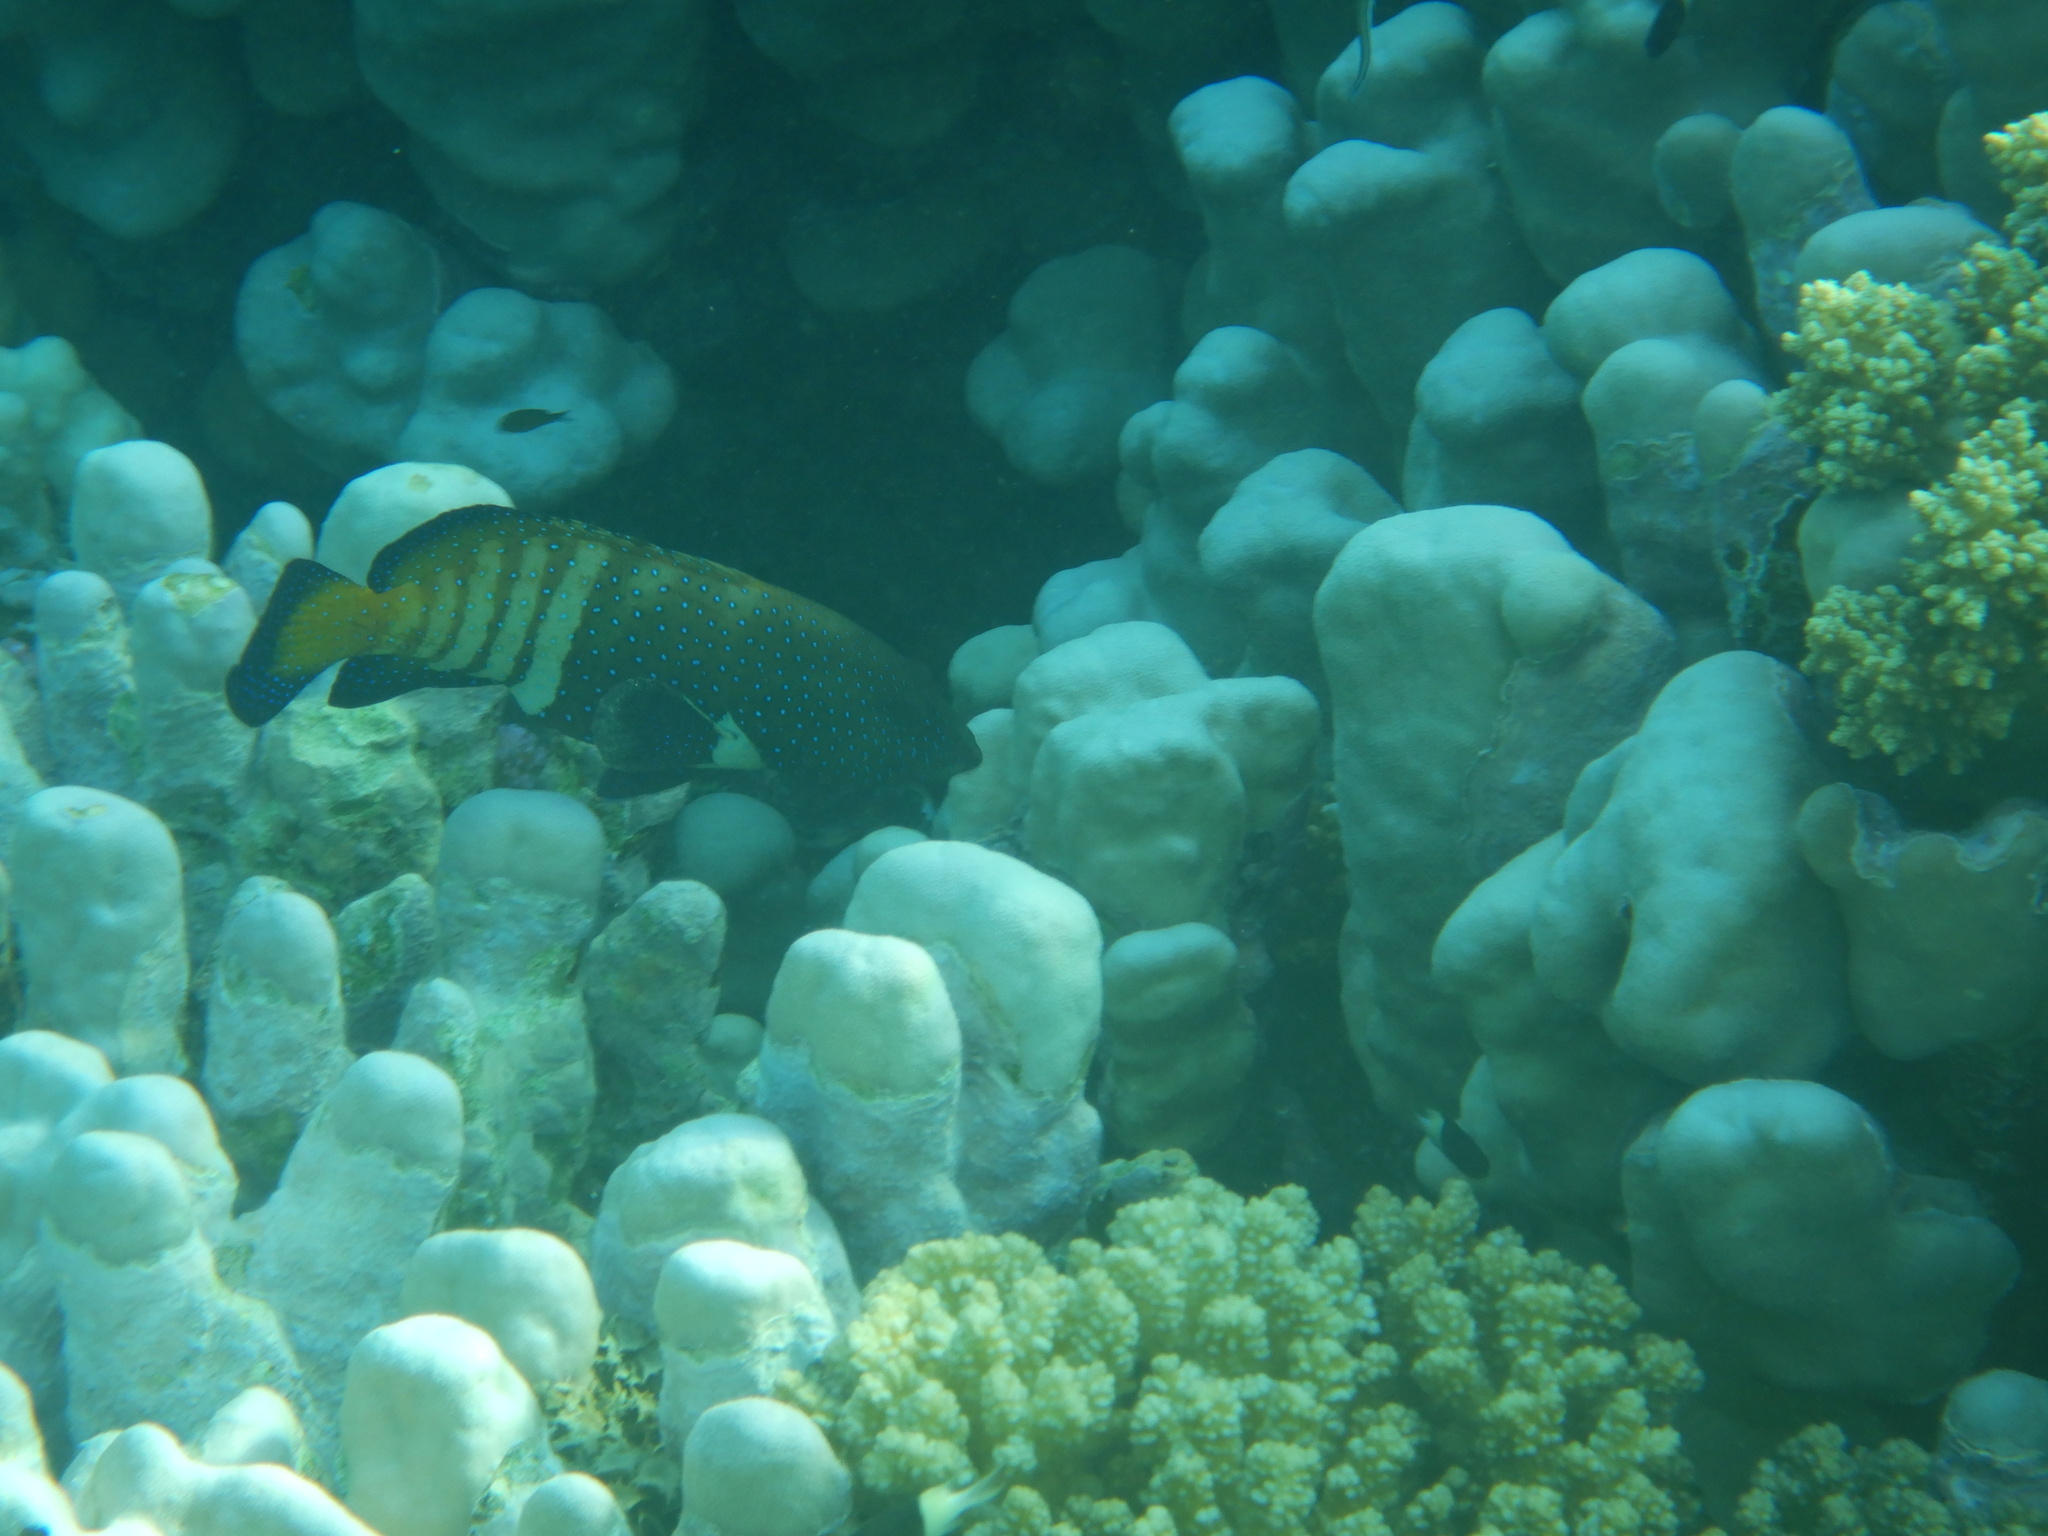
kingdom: Animalia
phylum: Chordata
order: Perciformes
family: Serranidae
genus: Cephalopholis
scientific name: Cephalopholis argus
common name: Peacock grouper
